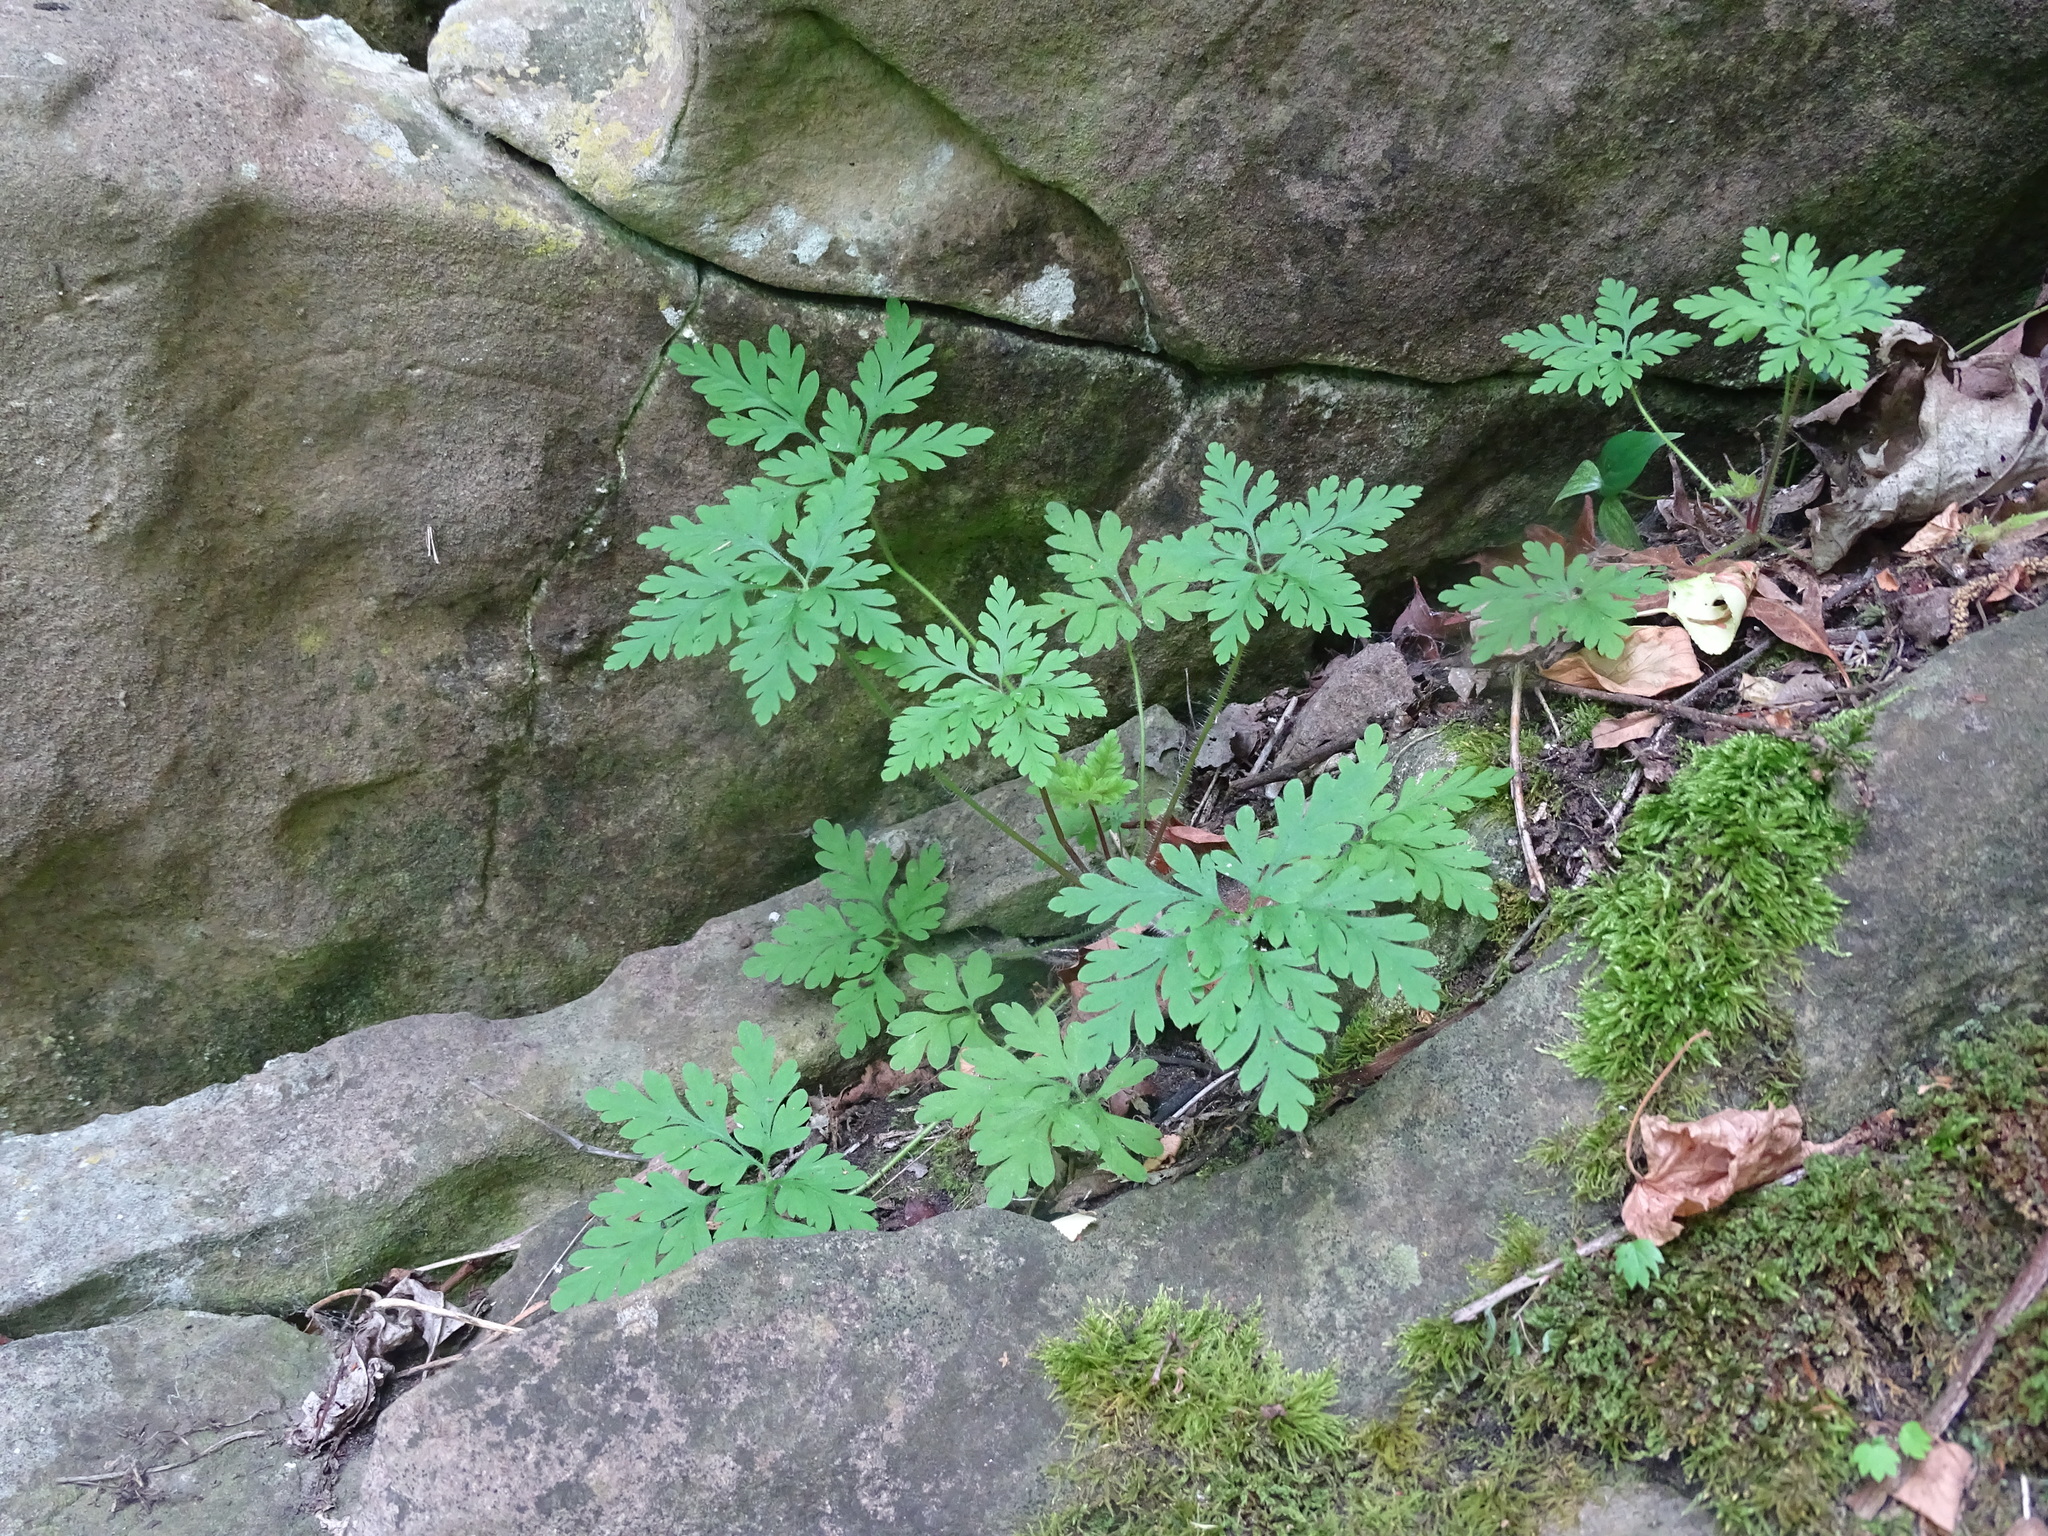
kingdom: Plantae
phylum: Tracheophyta
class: Magnoliopsida
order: Geraniales
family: Geraniaceae
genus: Geranium
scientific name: Geranium robertianum
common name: Herb-robert
